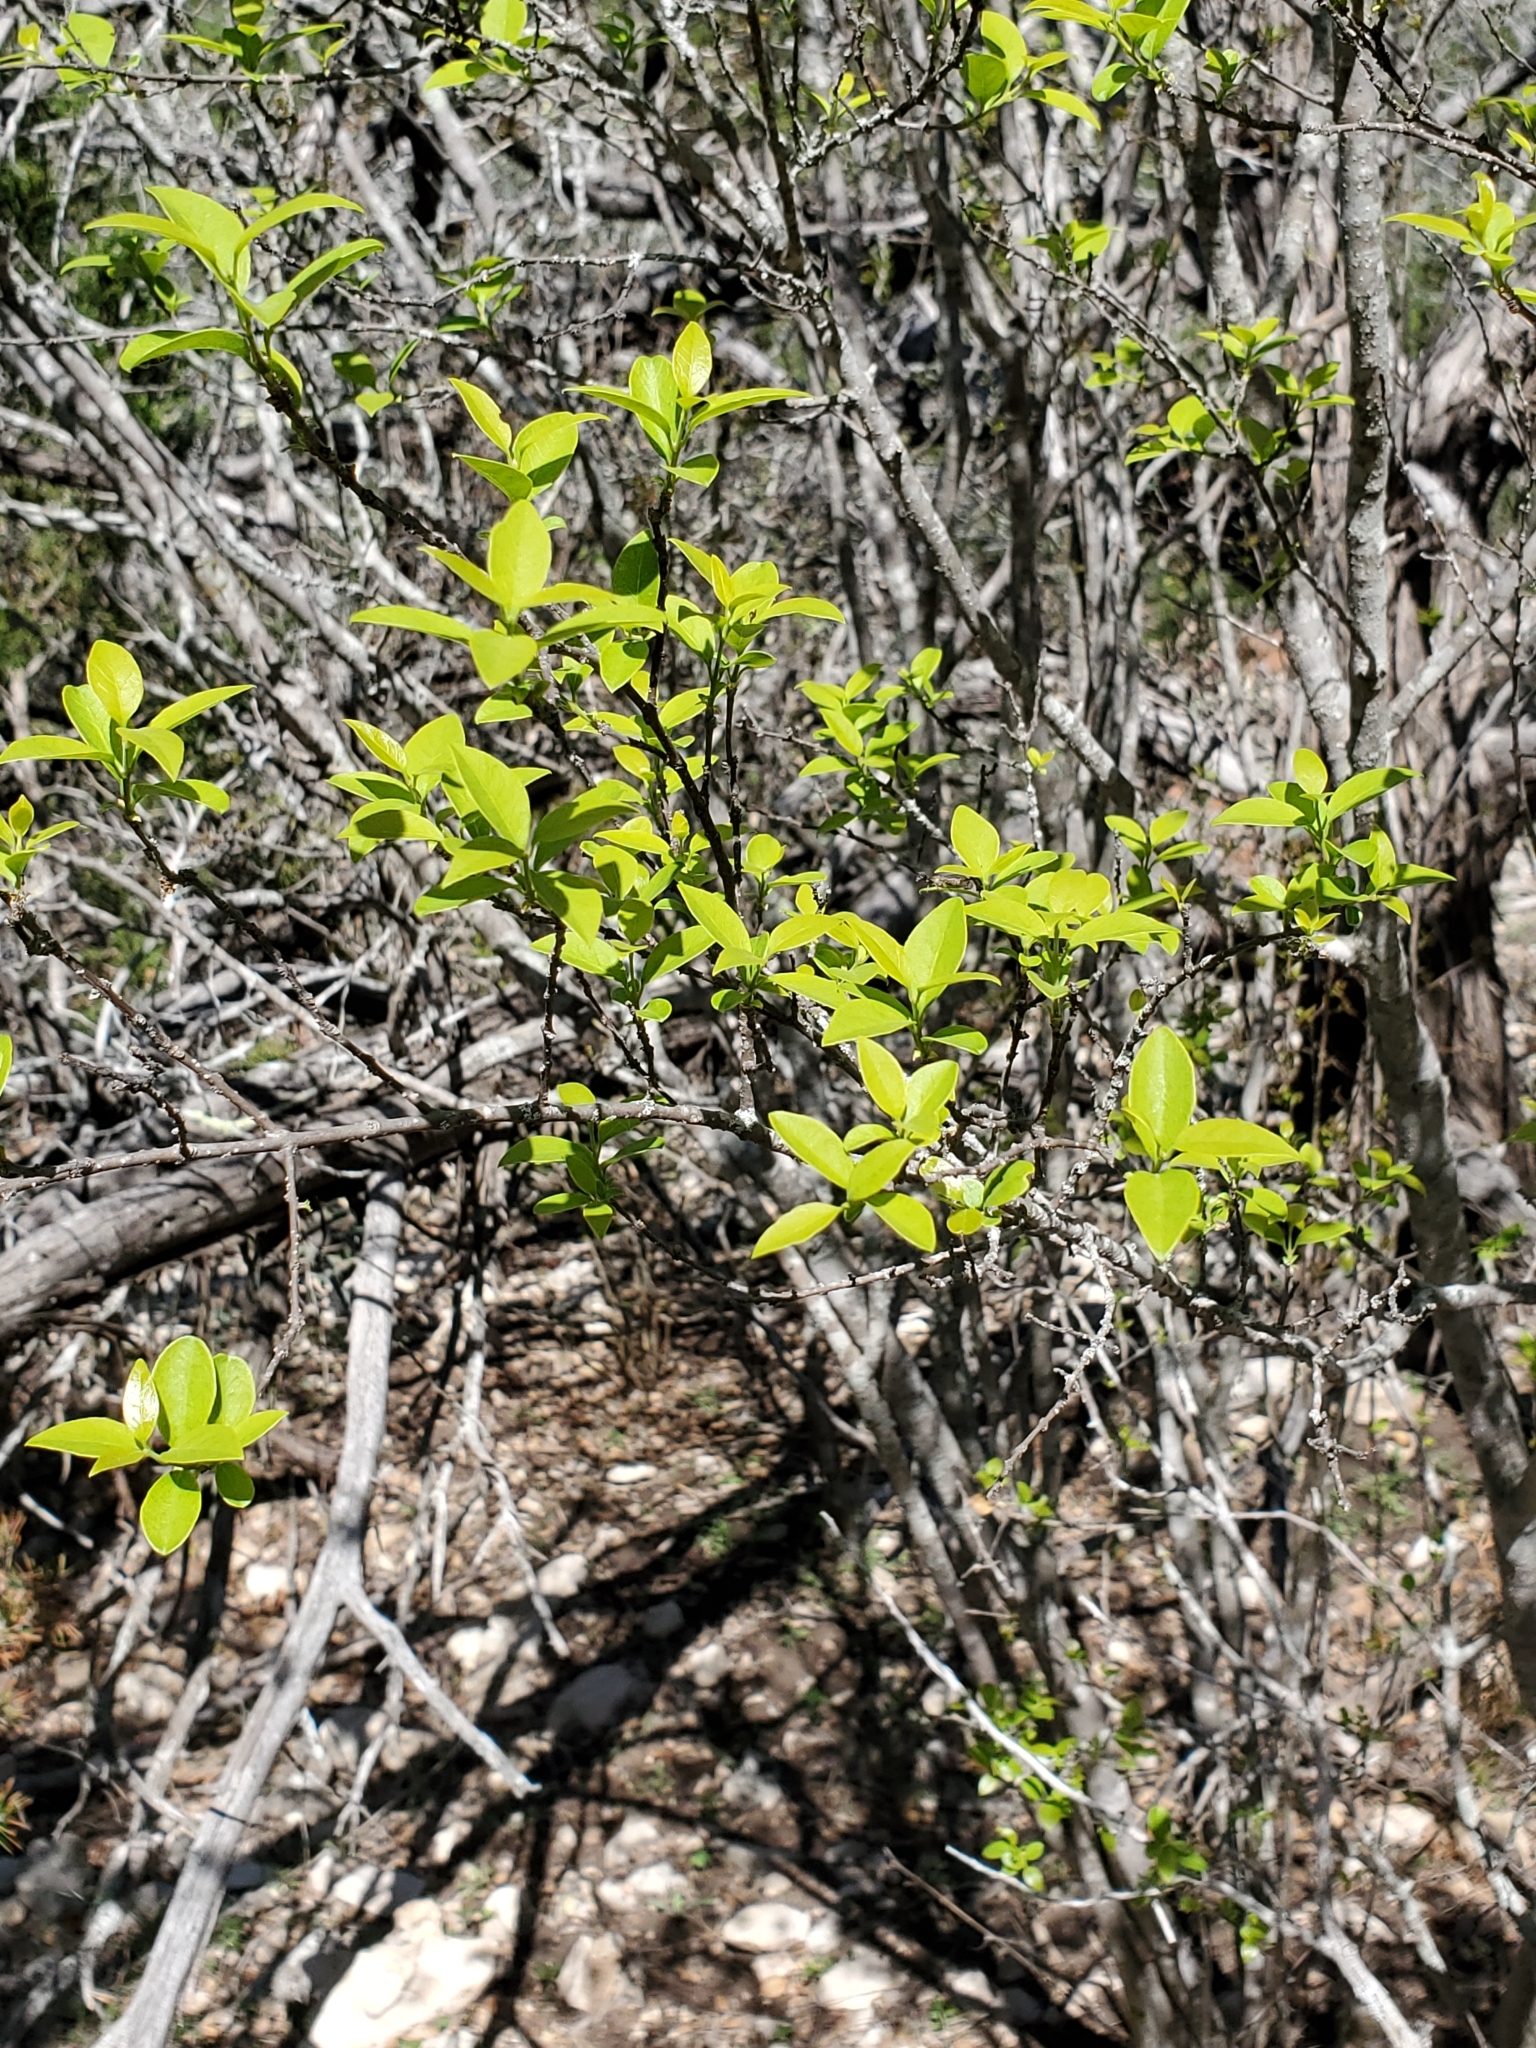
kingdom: Plantae
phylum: Tracheophyta
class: Magnoliopsida
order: Lamiales
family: Oleaceae
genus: Forestiera
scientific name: Forestiera reticulata
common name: Netleaf swamp-privet
